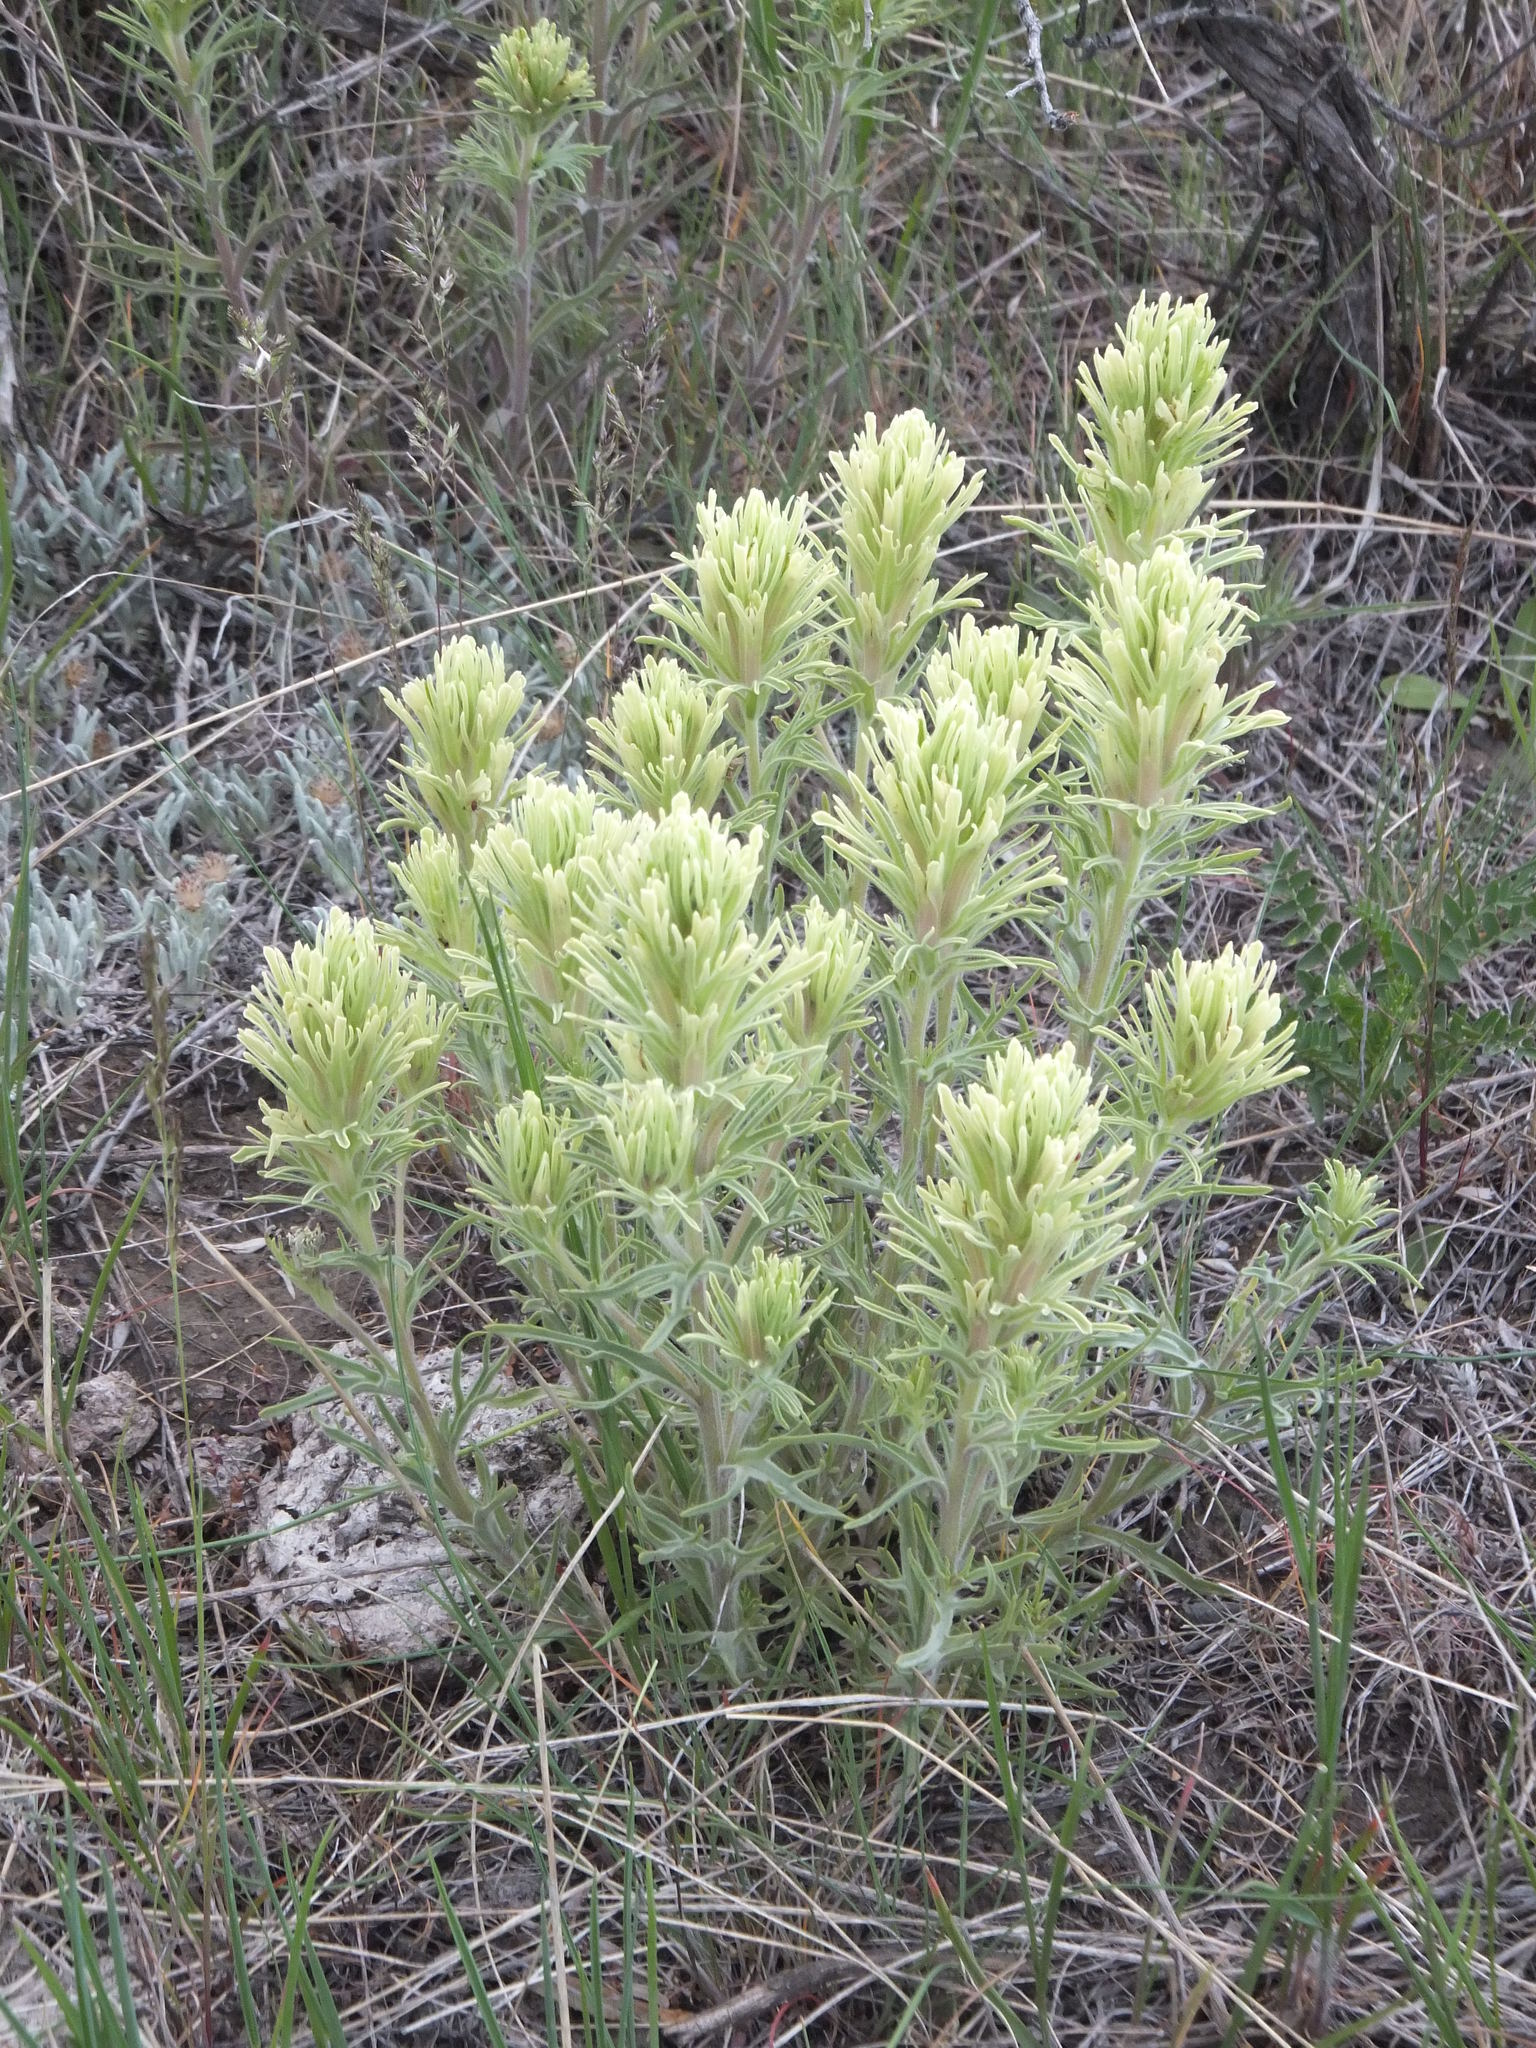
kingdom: Plantae
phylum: Tracheophyta
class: Magnoliopsida
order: Lamiales
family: Orobanchaceae
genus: Castilleja
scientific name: Castilleja thompsonii
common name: Thompson's paintbrush
